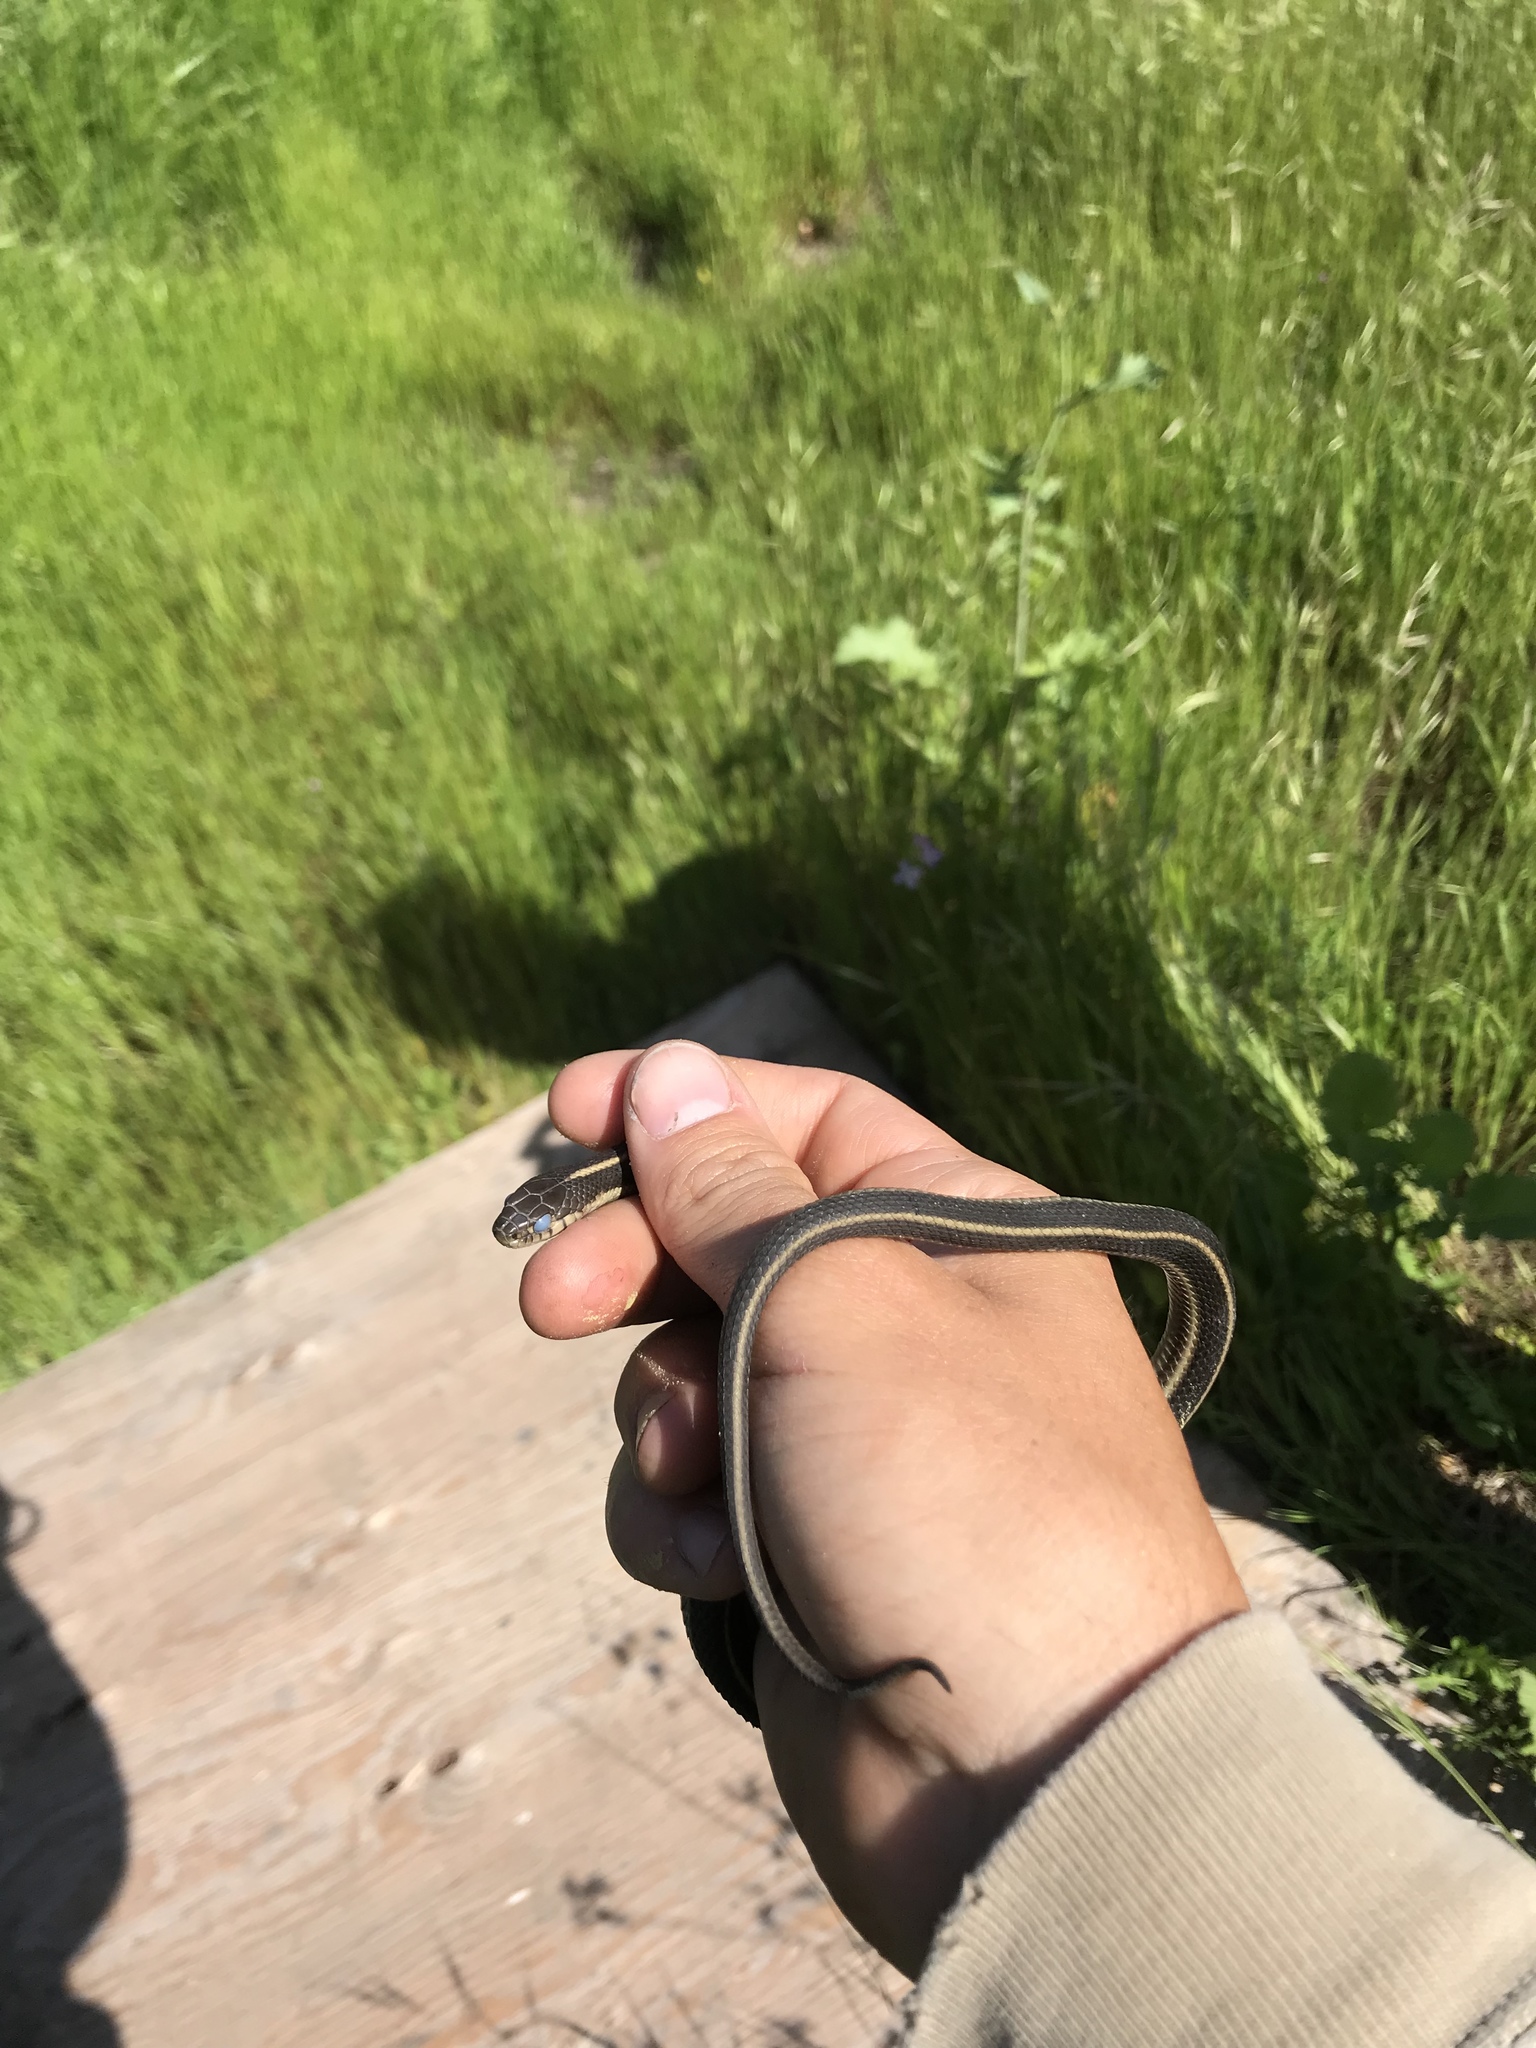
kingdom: Animalia
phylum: Chordata
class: Squamata
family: Colubridae
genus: Thamnophis
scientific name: Thamnophis atratus
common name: Pacific coast aquatic garter snake
